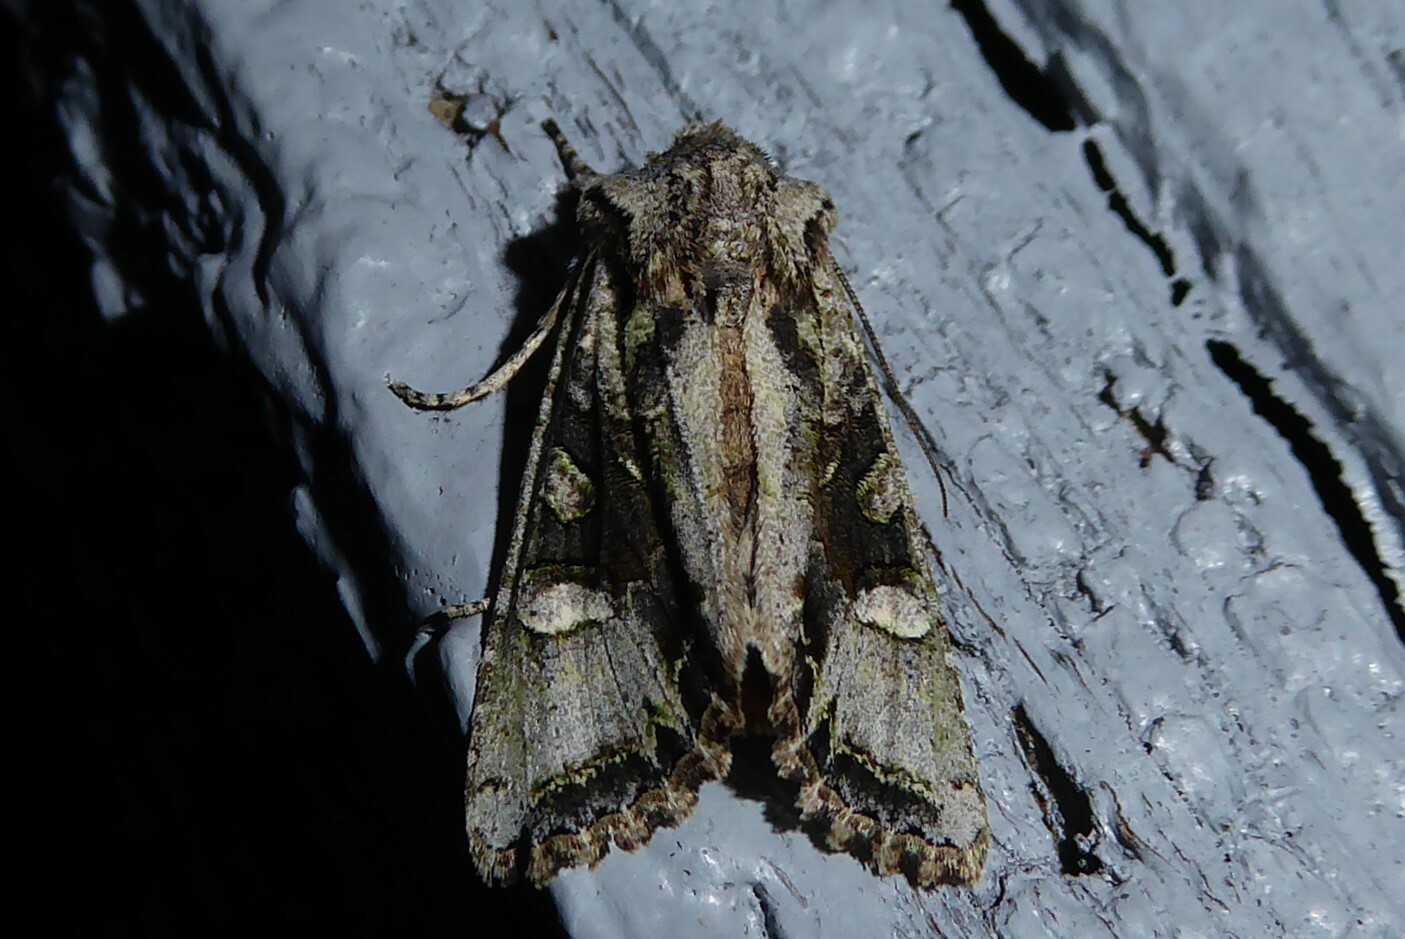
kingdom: Animalia
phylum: Arthropoda
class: Insecta
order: Lepidoptera
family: Noctuidae
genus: Ichneutica
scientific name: Ichneutica insignis
